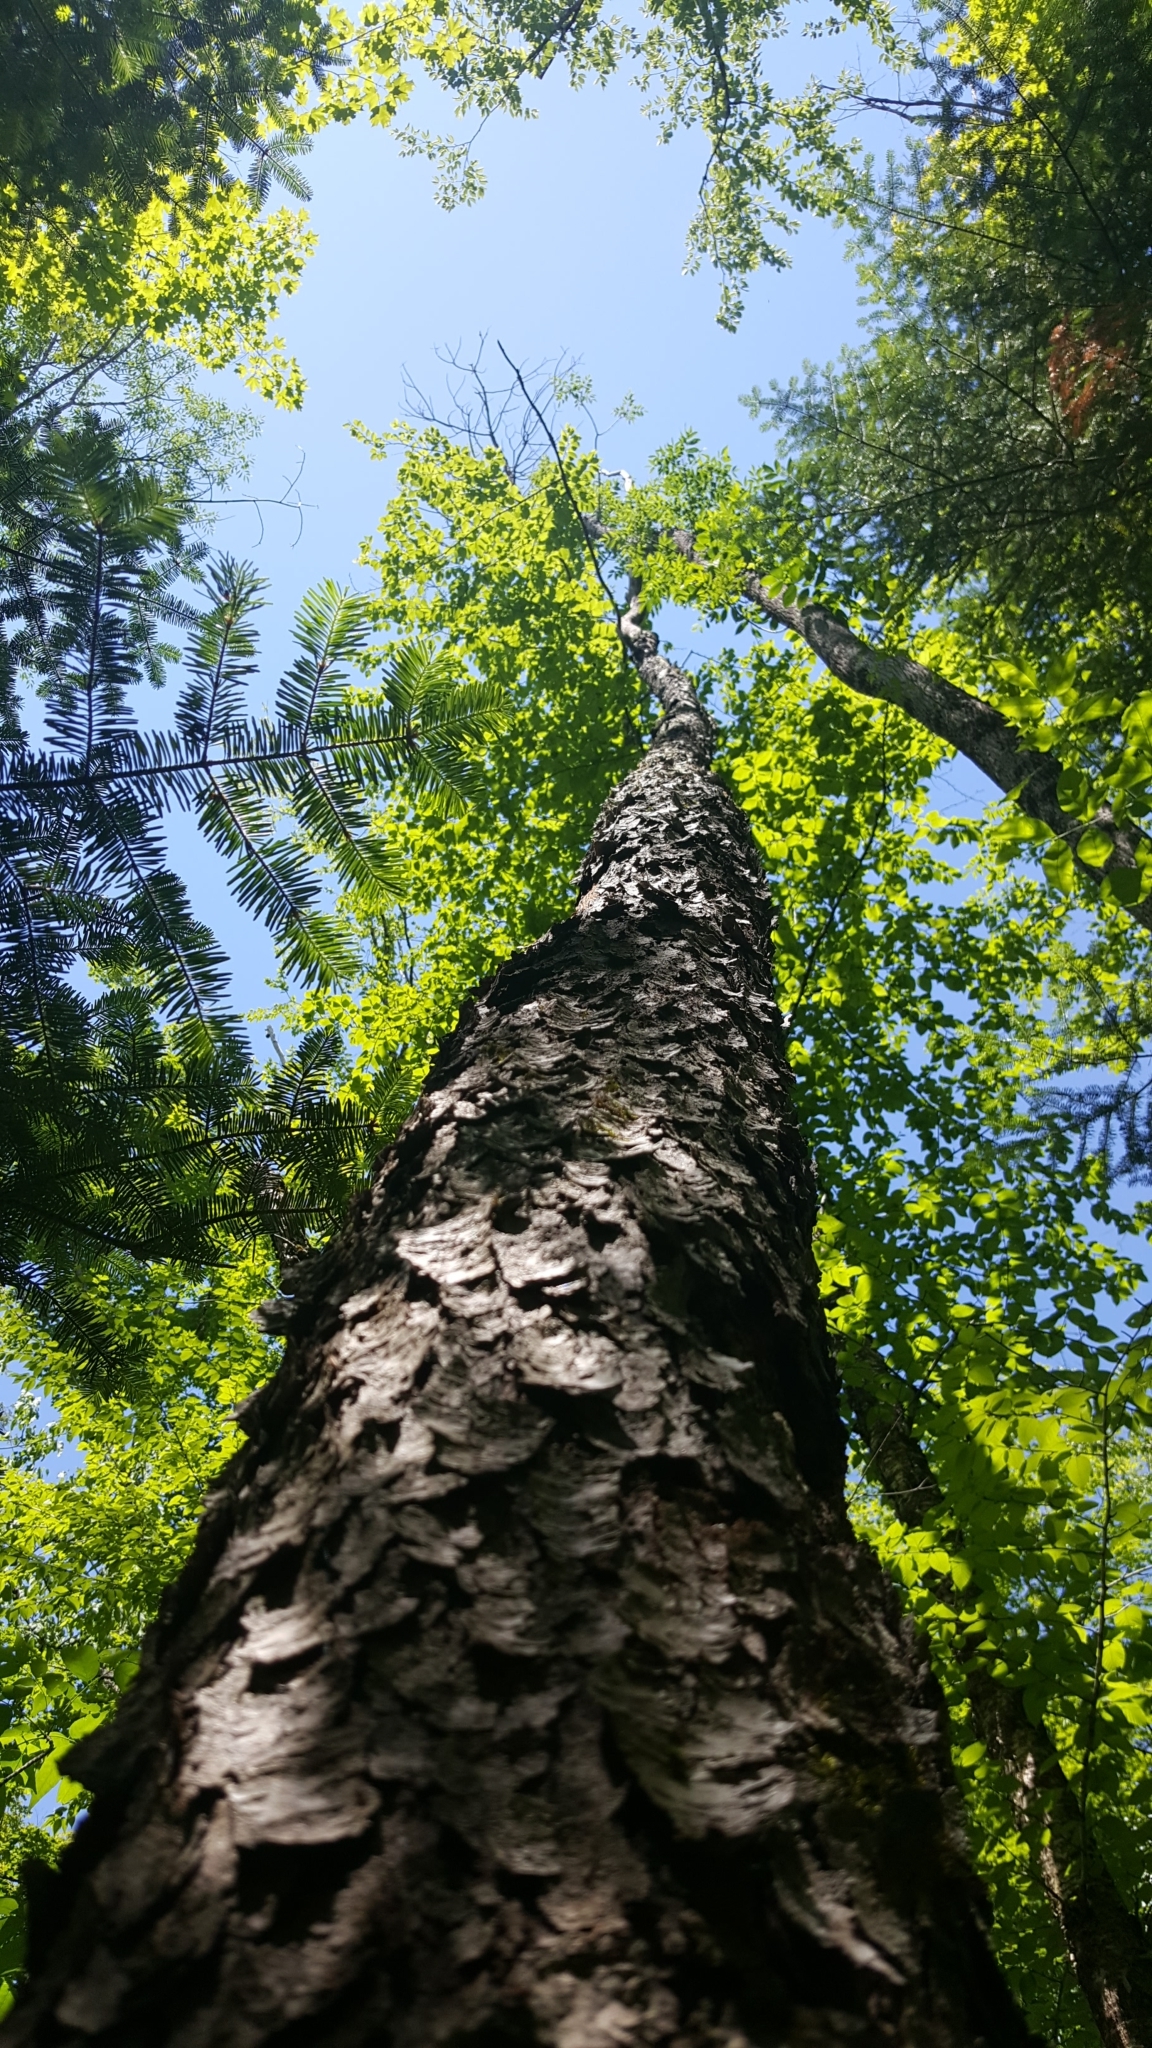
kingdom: Plantae
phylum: Tracheophyta
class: Magnoliopsida
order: Rosales
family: Rosaceae
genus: Prunus
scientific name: Prunus serotina
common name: Black cherry
